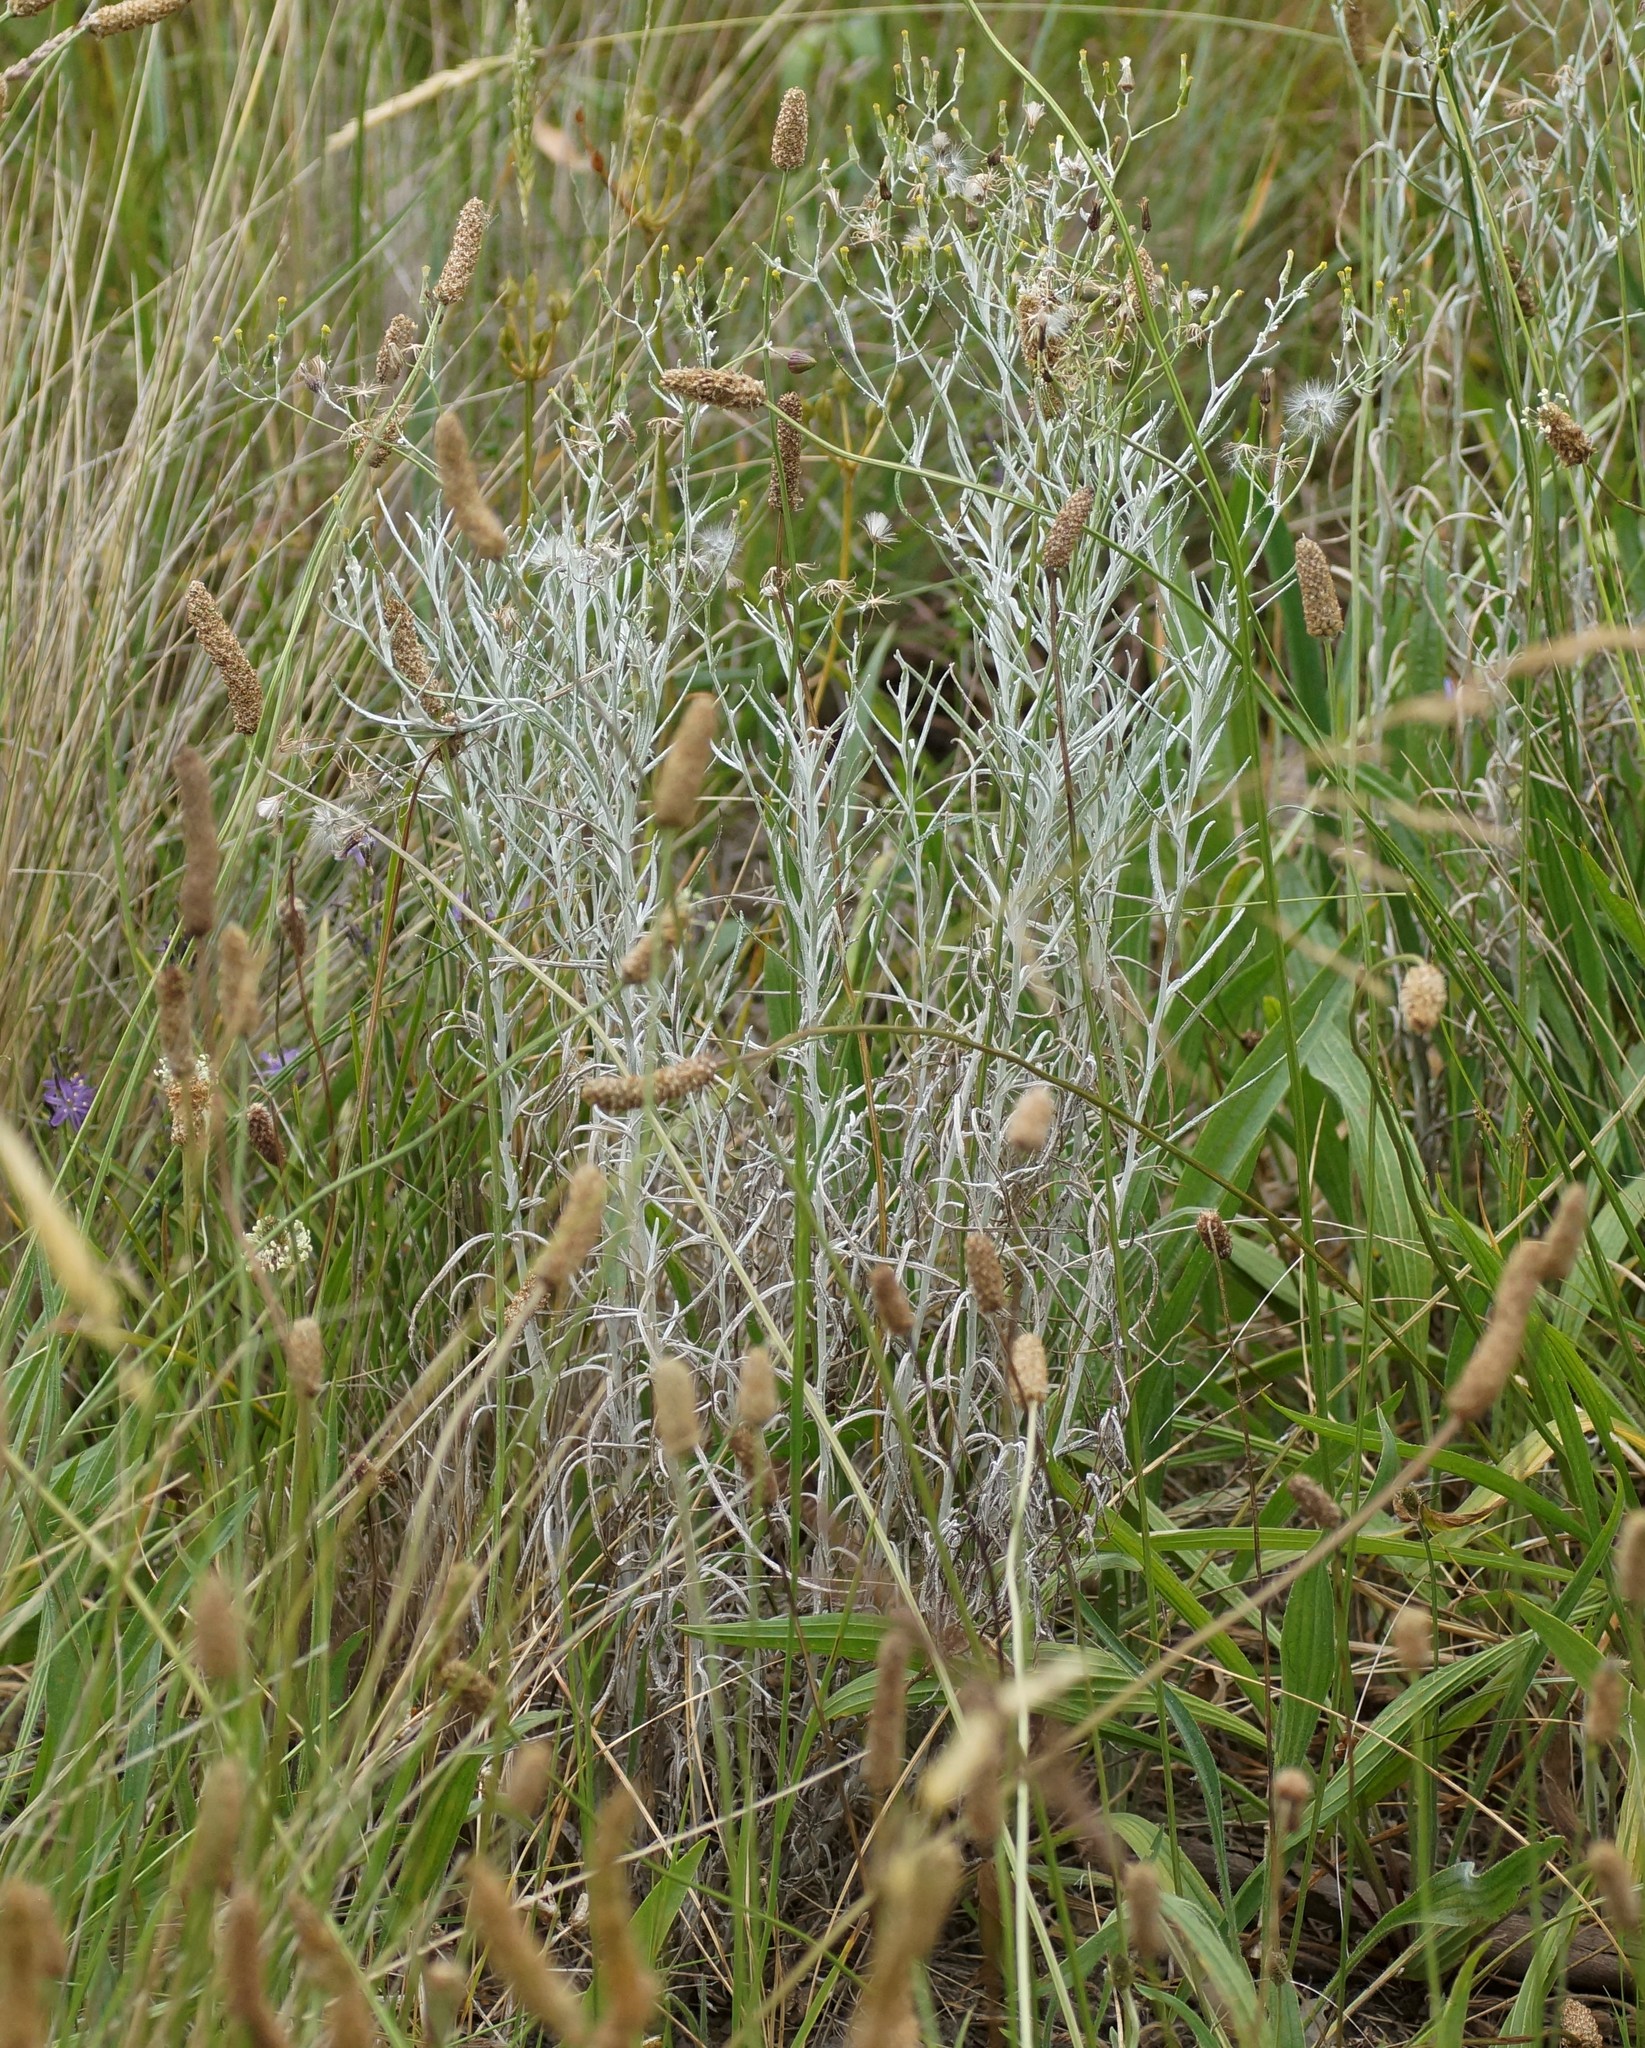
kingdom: Plantae
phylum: Tracheophyta
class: Magnoliopsida
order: Asterales
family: Asteraceae
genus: Senecio
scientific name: Senecio quadridentatus
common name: Cotton fireweed
